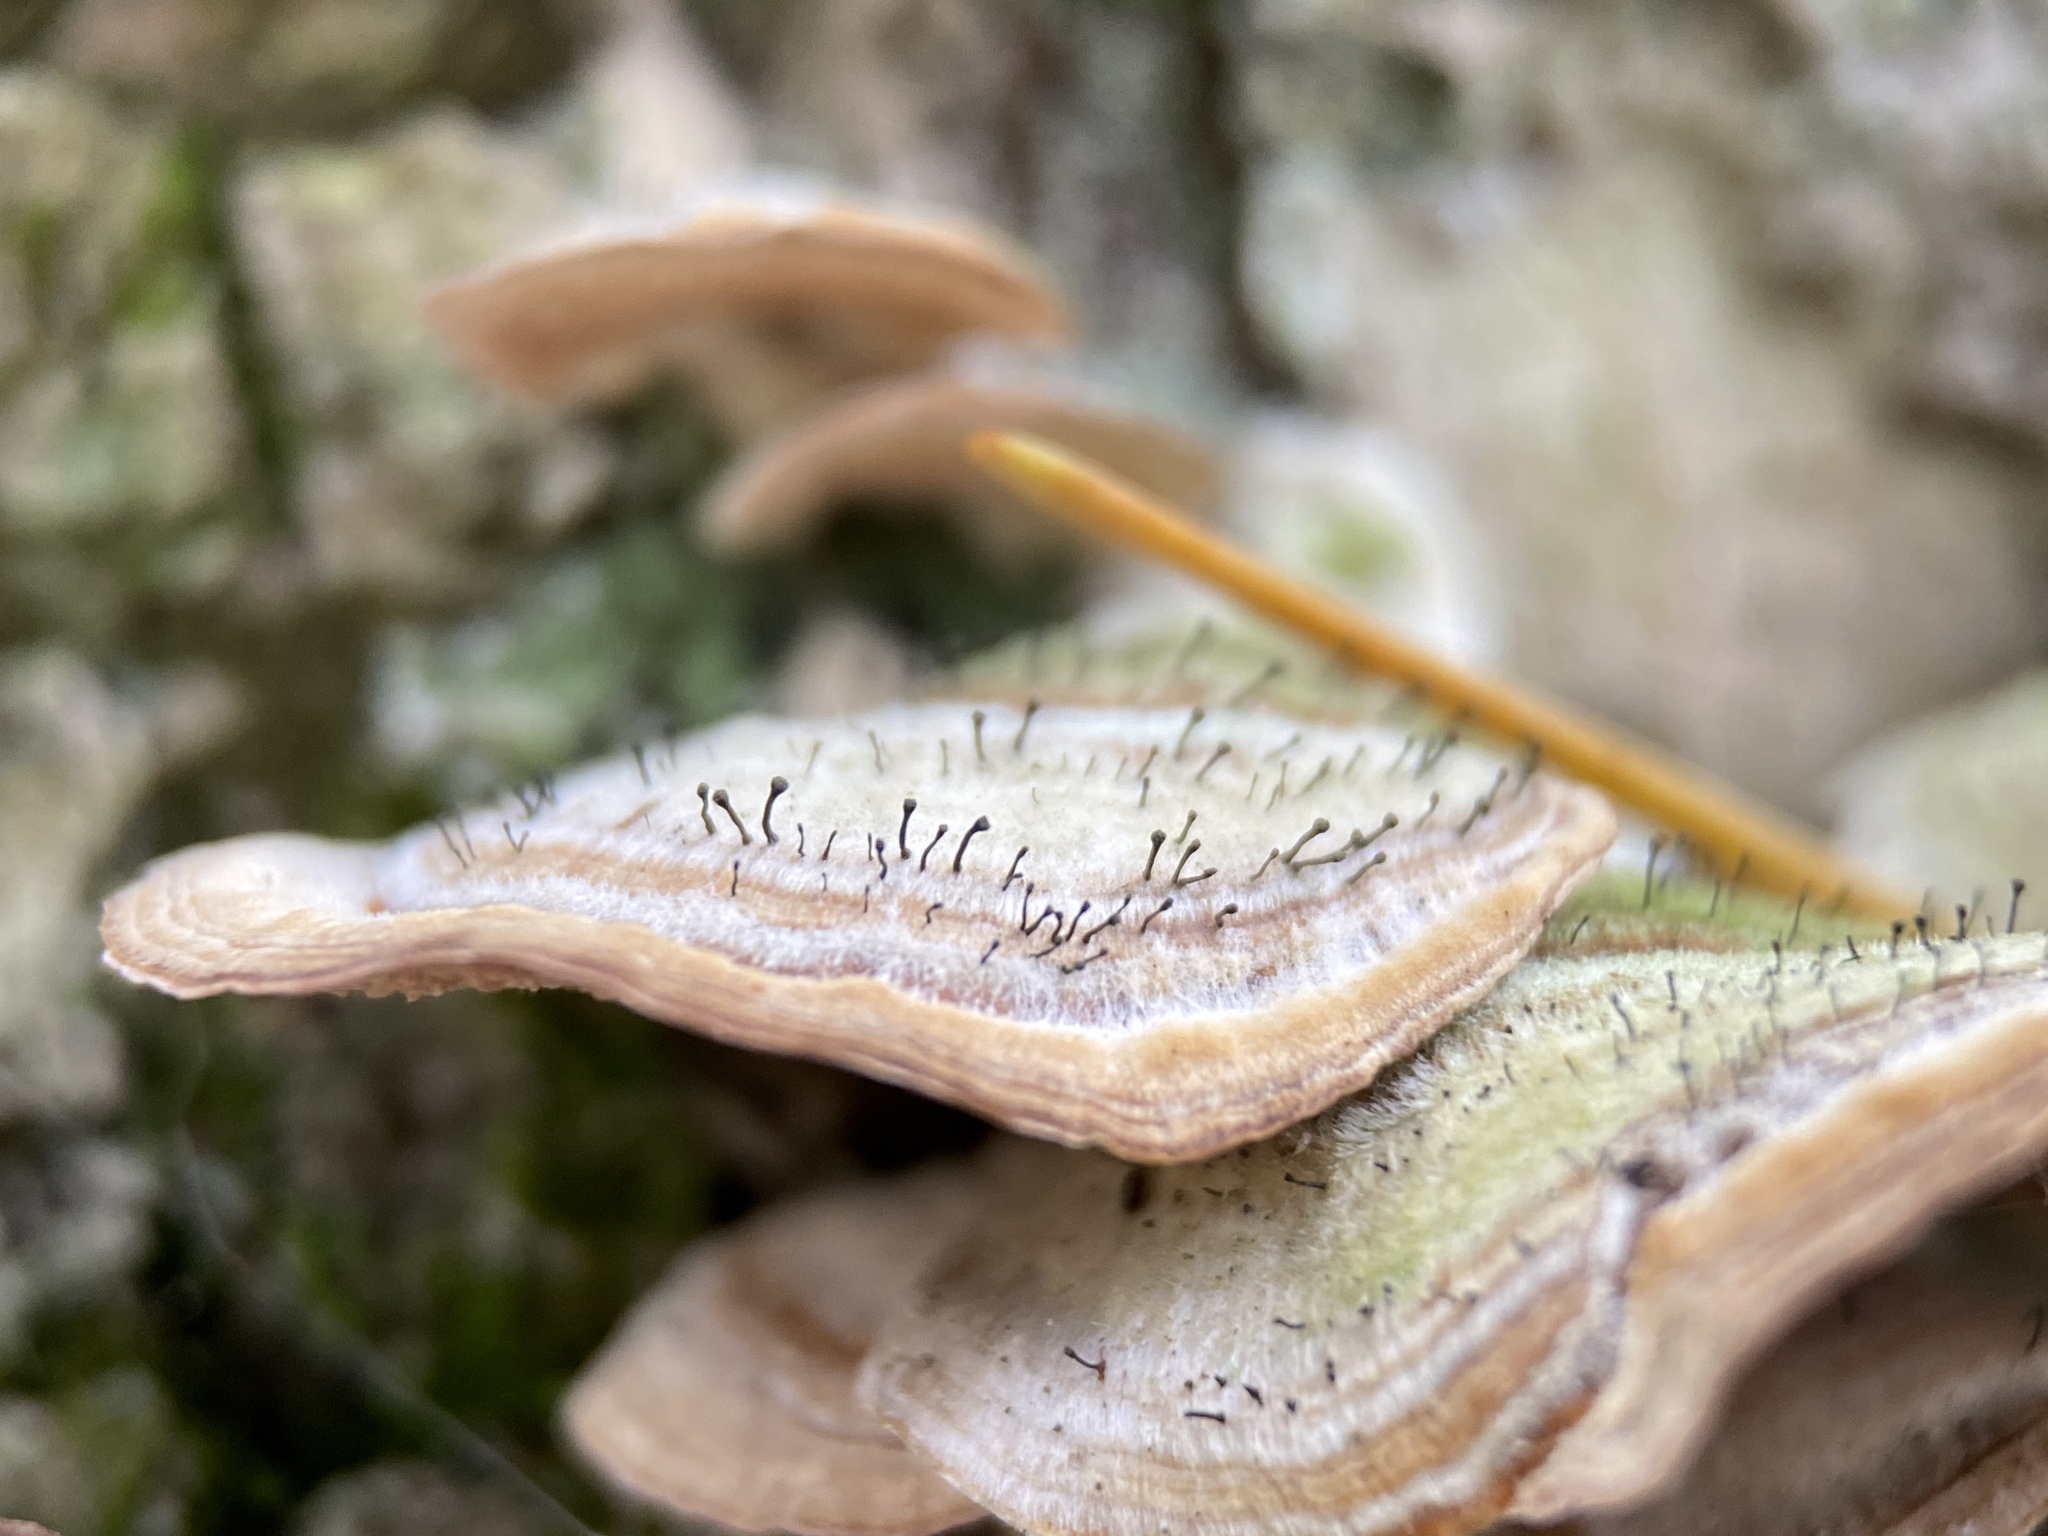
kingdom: Fungi
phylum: Ascomycota
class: Eurotiomycetes
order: Mycocaliciales
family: Mycocaliciaceae
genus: Phaeocalicium
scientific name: Phaeocalicium polyporaeum
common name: Fairy pins
